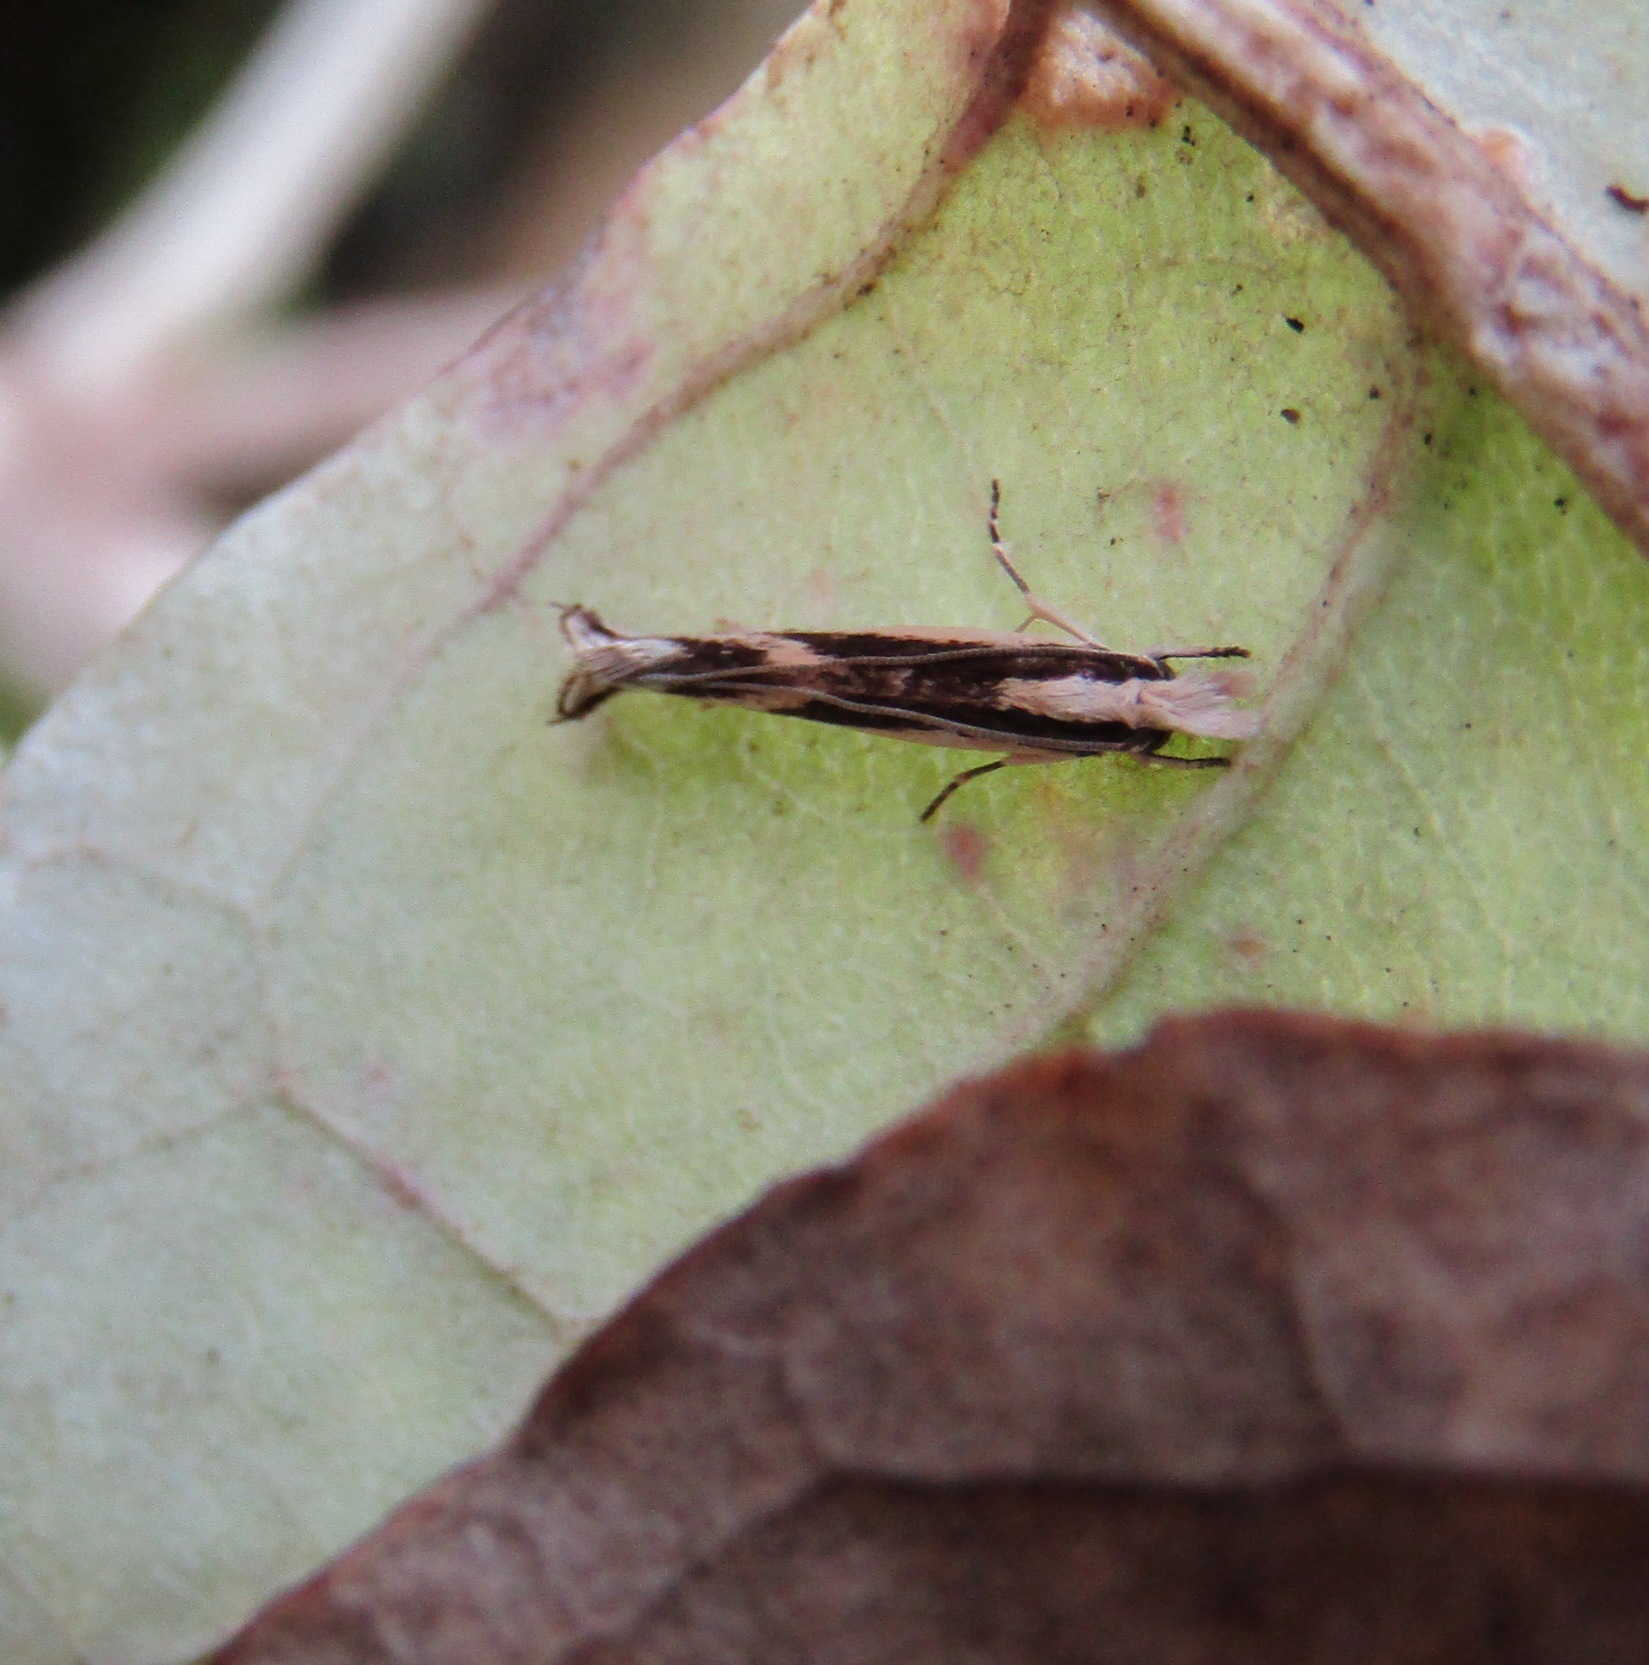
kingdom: Animalia
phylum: Arthropoda
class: Insecta
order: Lepidoptera
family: Tineidae
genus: Erechthias
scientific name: Erechthias chasmatias
